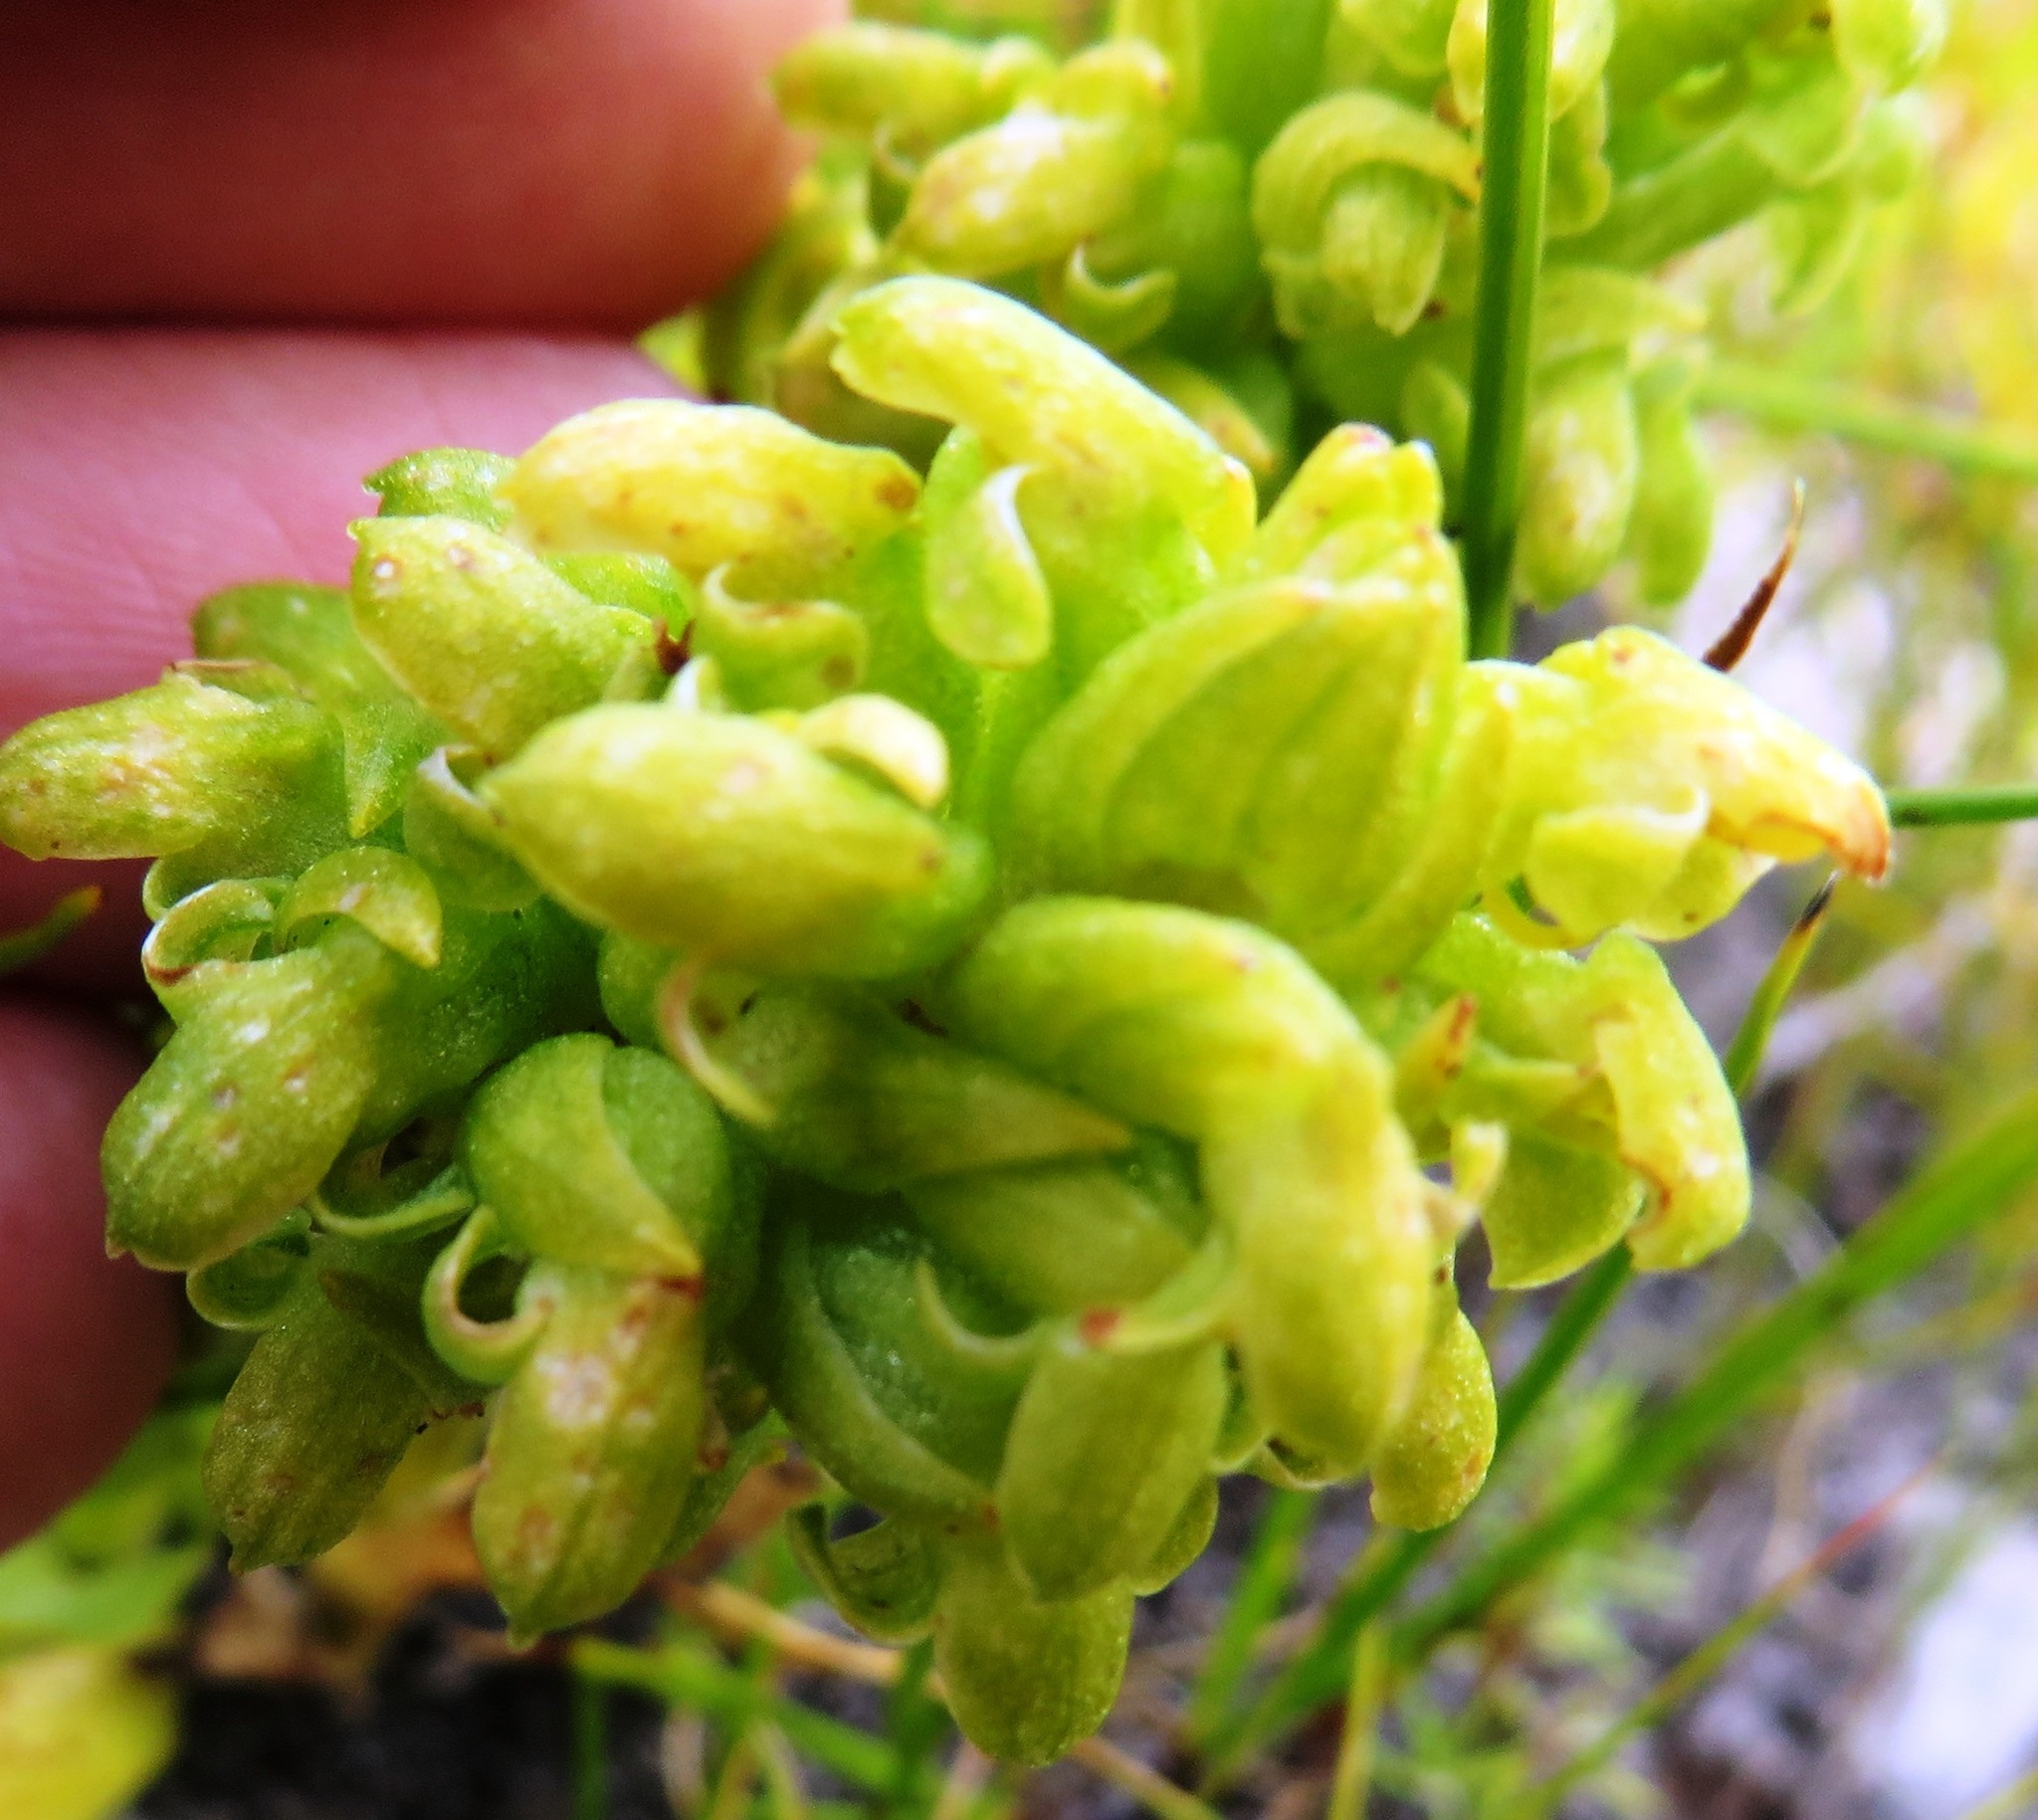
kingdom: Plantae
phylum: Tracheophyta
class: Liliopsida
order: Asparagales
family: Orchidaceae
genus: Disa
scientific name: Disa cylindrica
